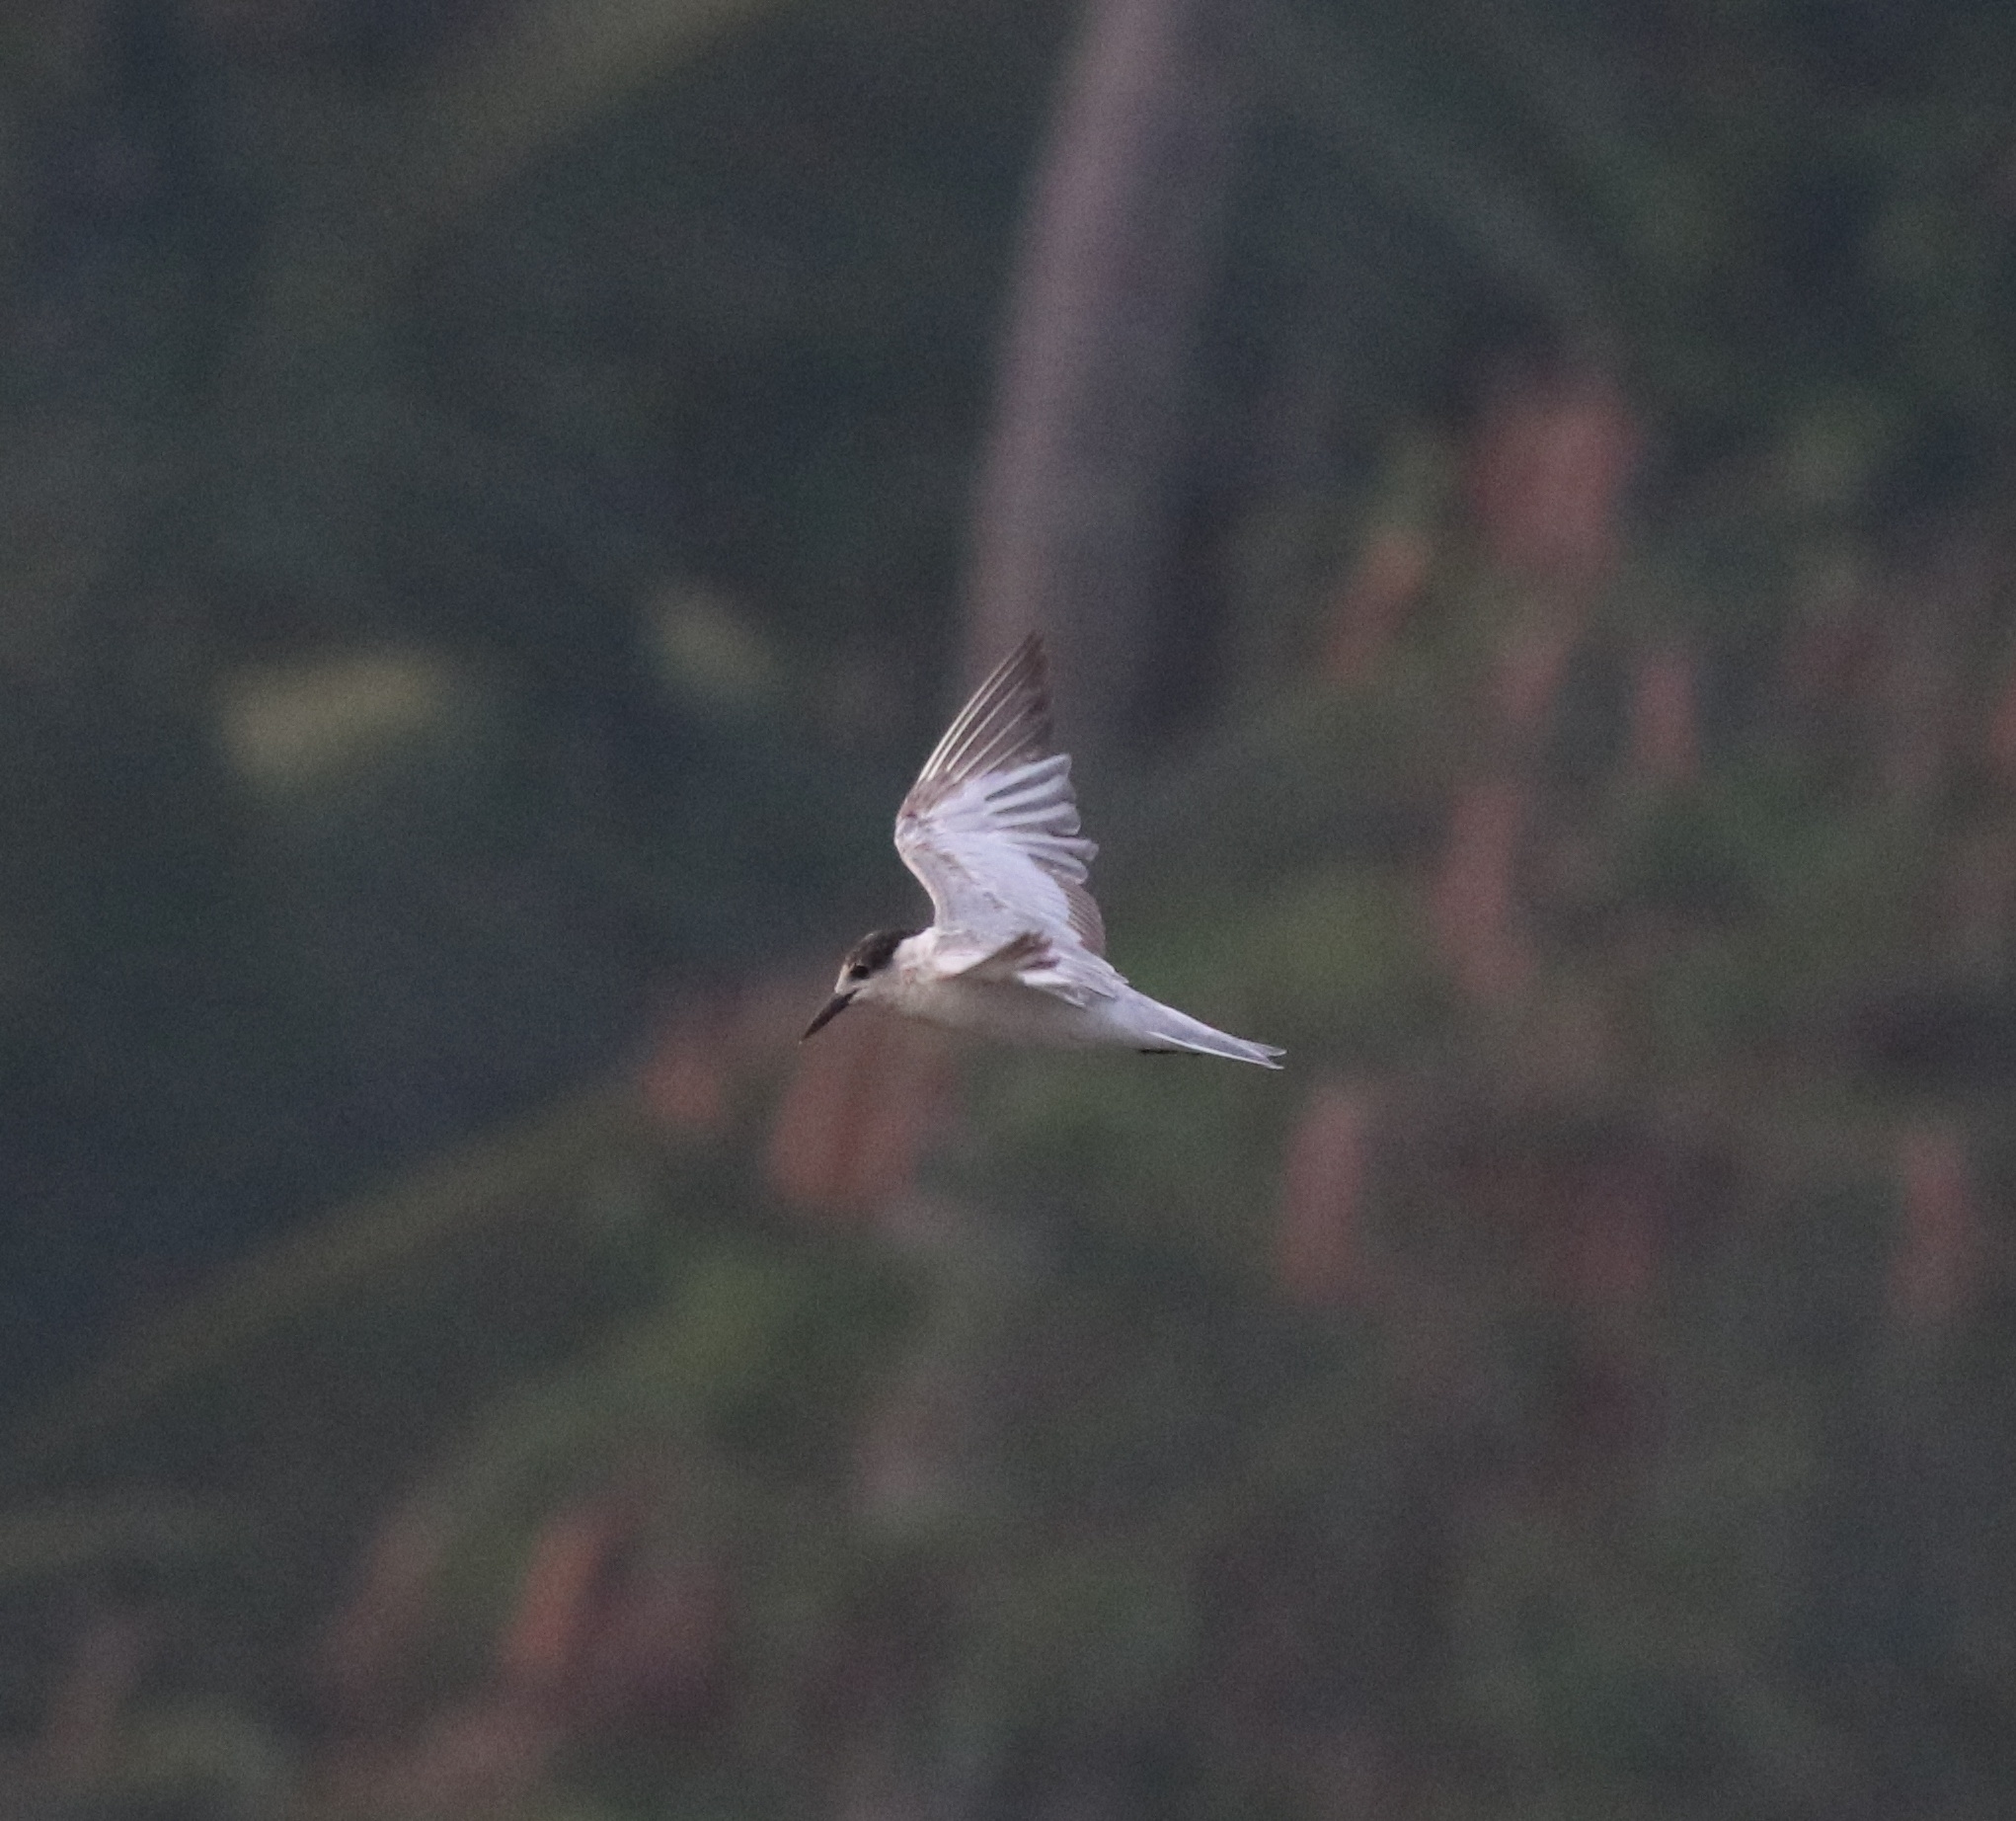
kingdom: Animalia
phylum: Chordata
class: Aves
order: Charadriiformes
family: Laridae
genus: Chlidonias
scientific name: Chlidonias hybrida
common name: Whiskered tern
